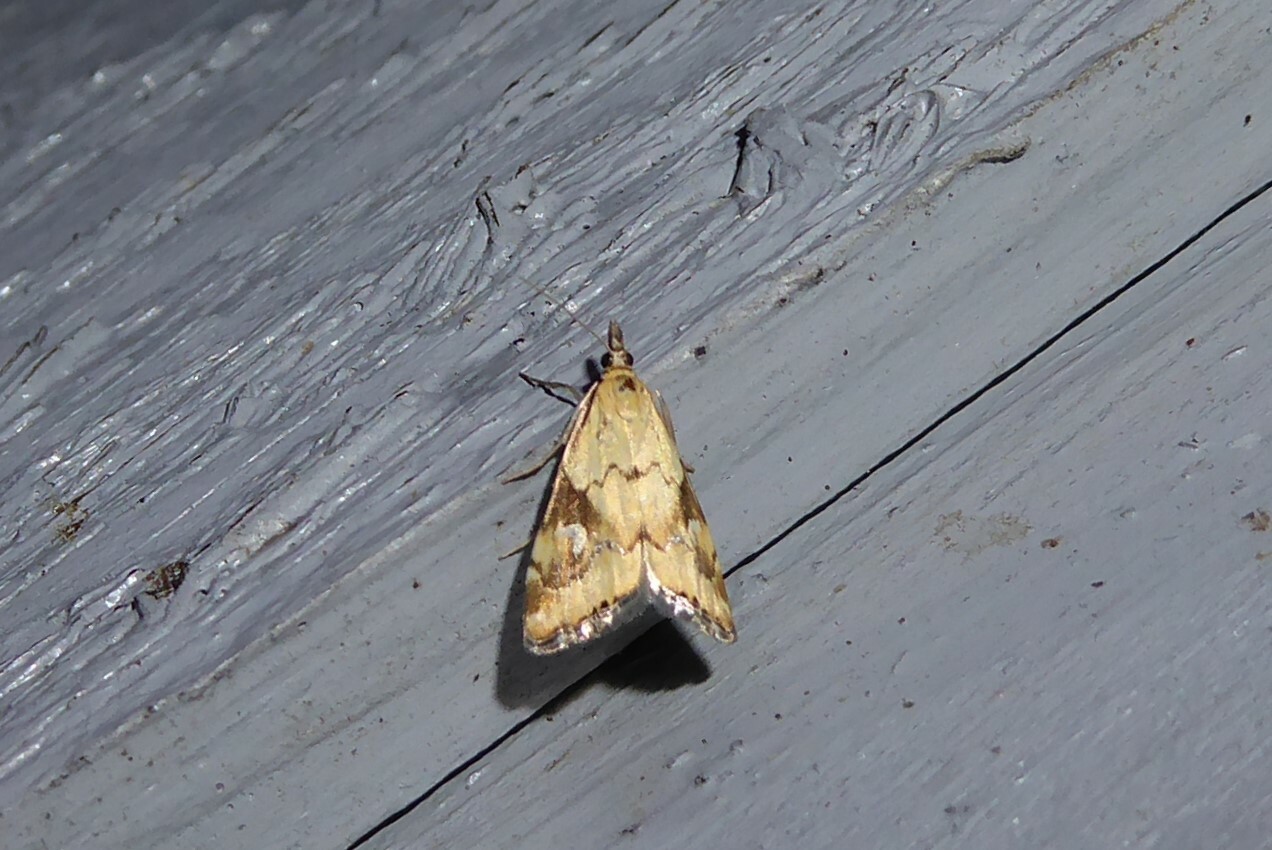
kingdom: Animalia
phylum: Arthropoda
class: Insecta
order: Lepidoptera
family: Crambidae
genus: Glaucocharis
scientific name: Glaucocharis lepidella
